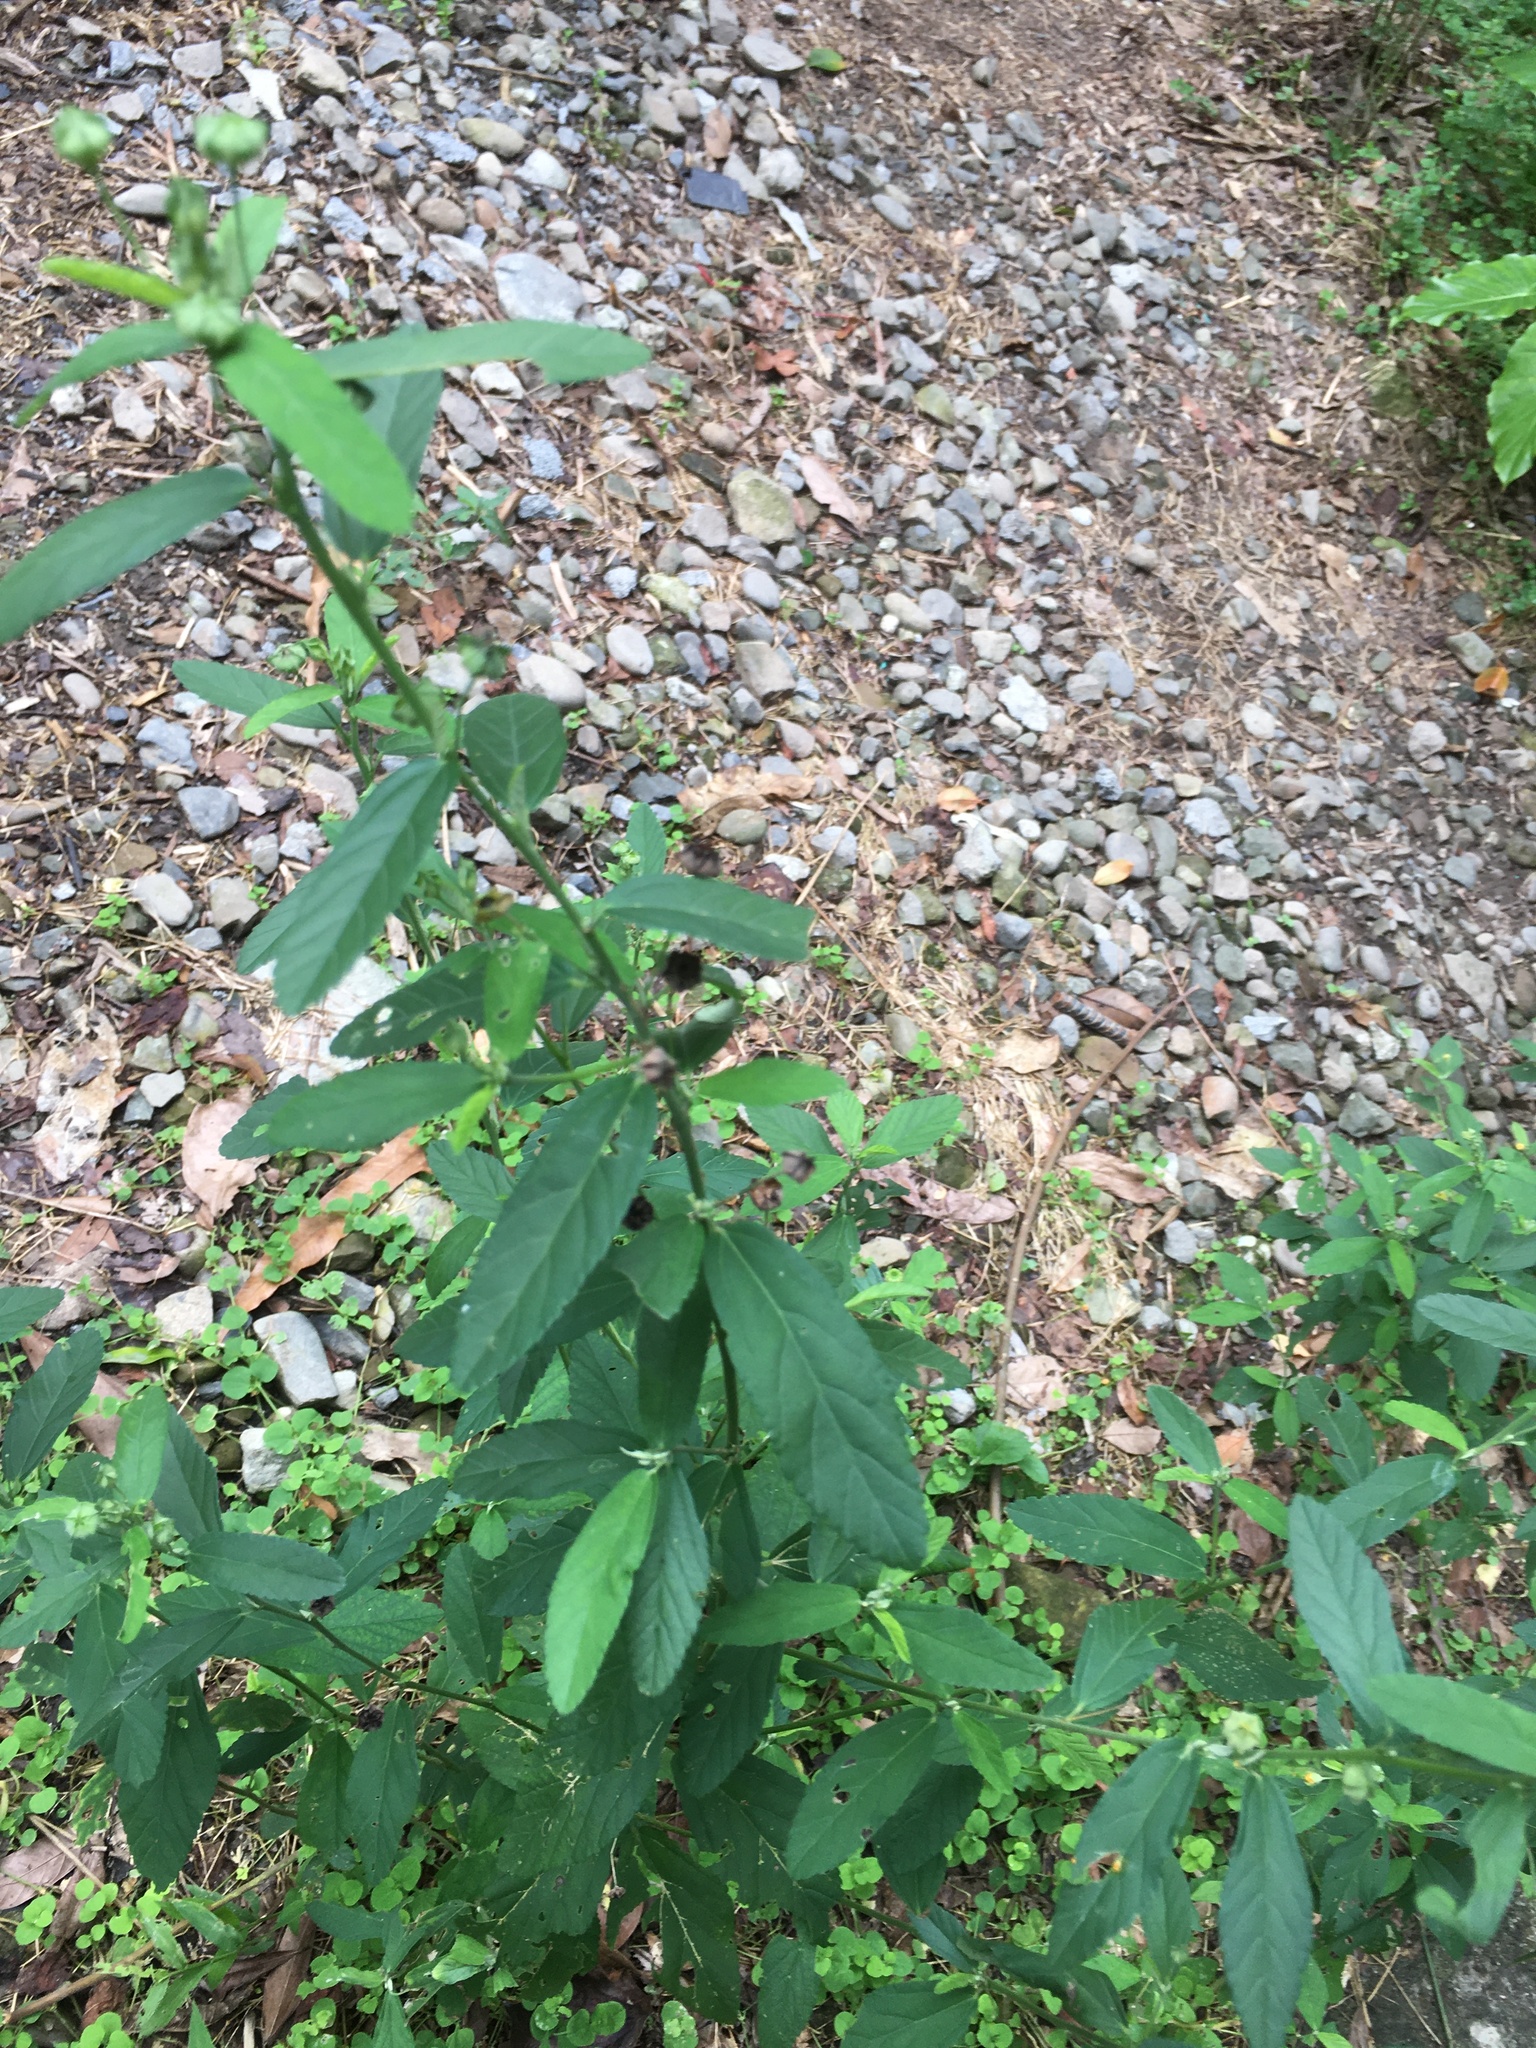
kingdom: Plantae
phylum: Tracheophyta
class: Magnoliopsida
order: Malvales
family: Malvaceae
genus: Sida
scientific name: Sida rhombifolia
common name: Queensland-hemp
